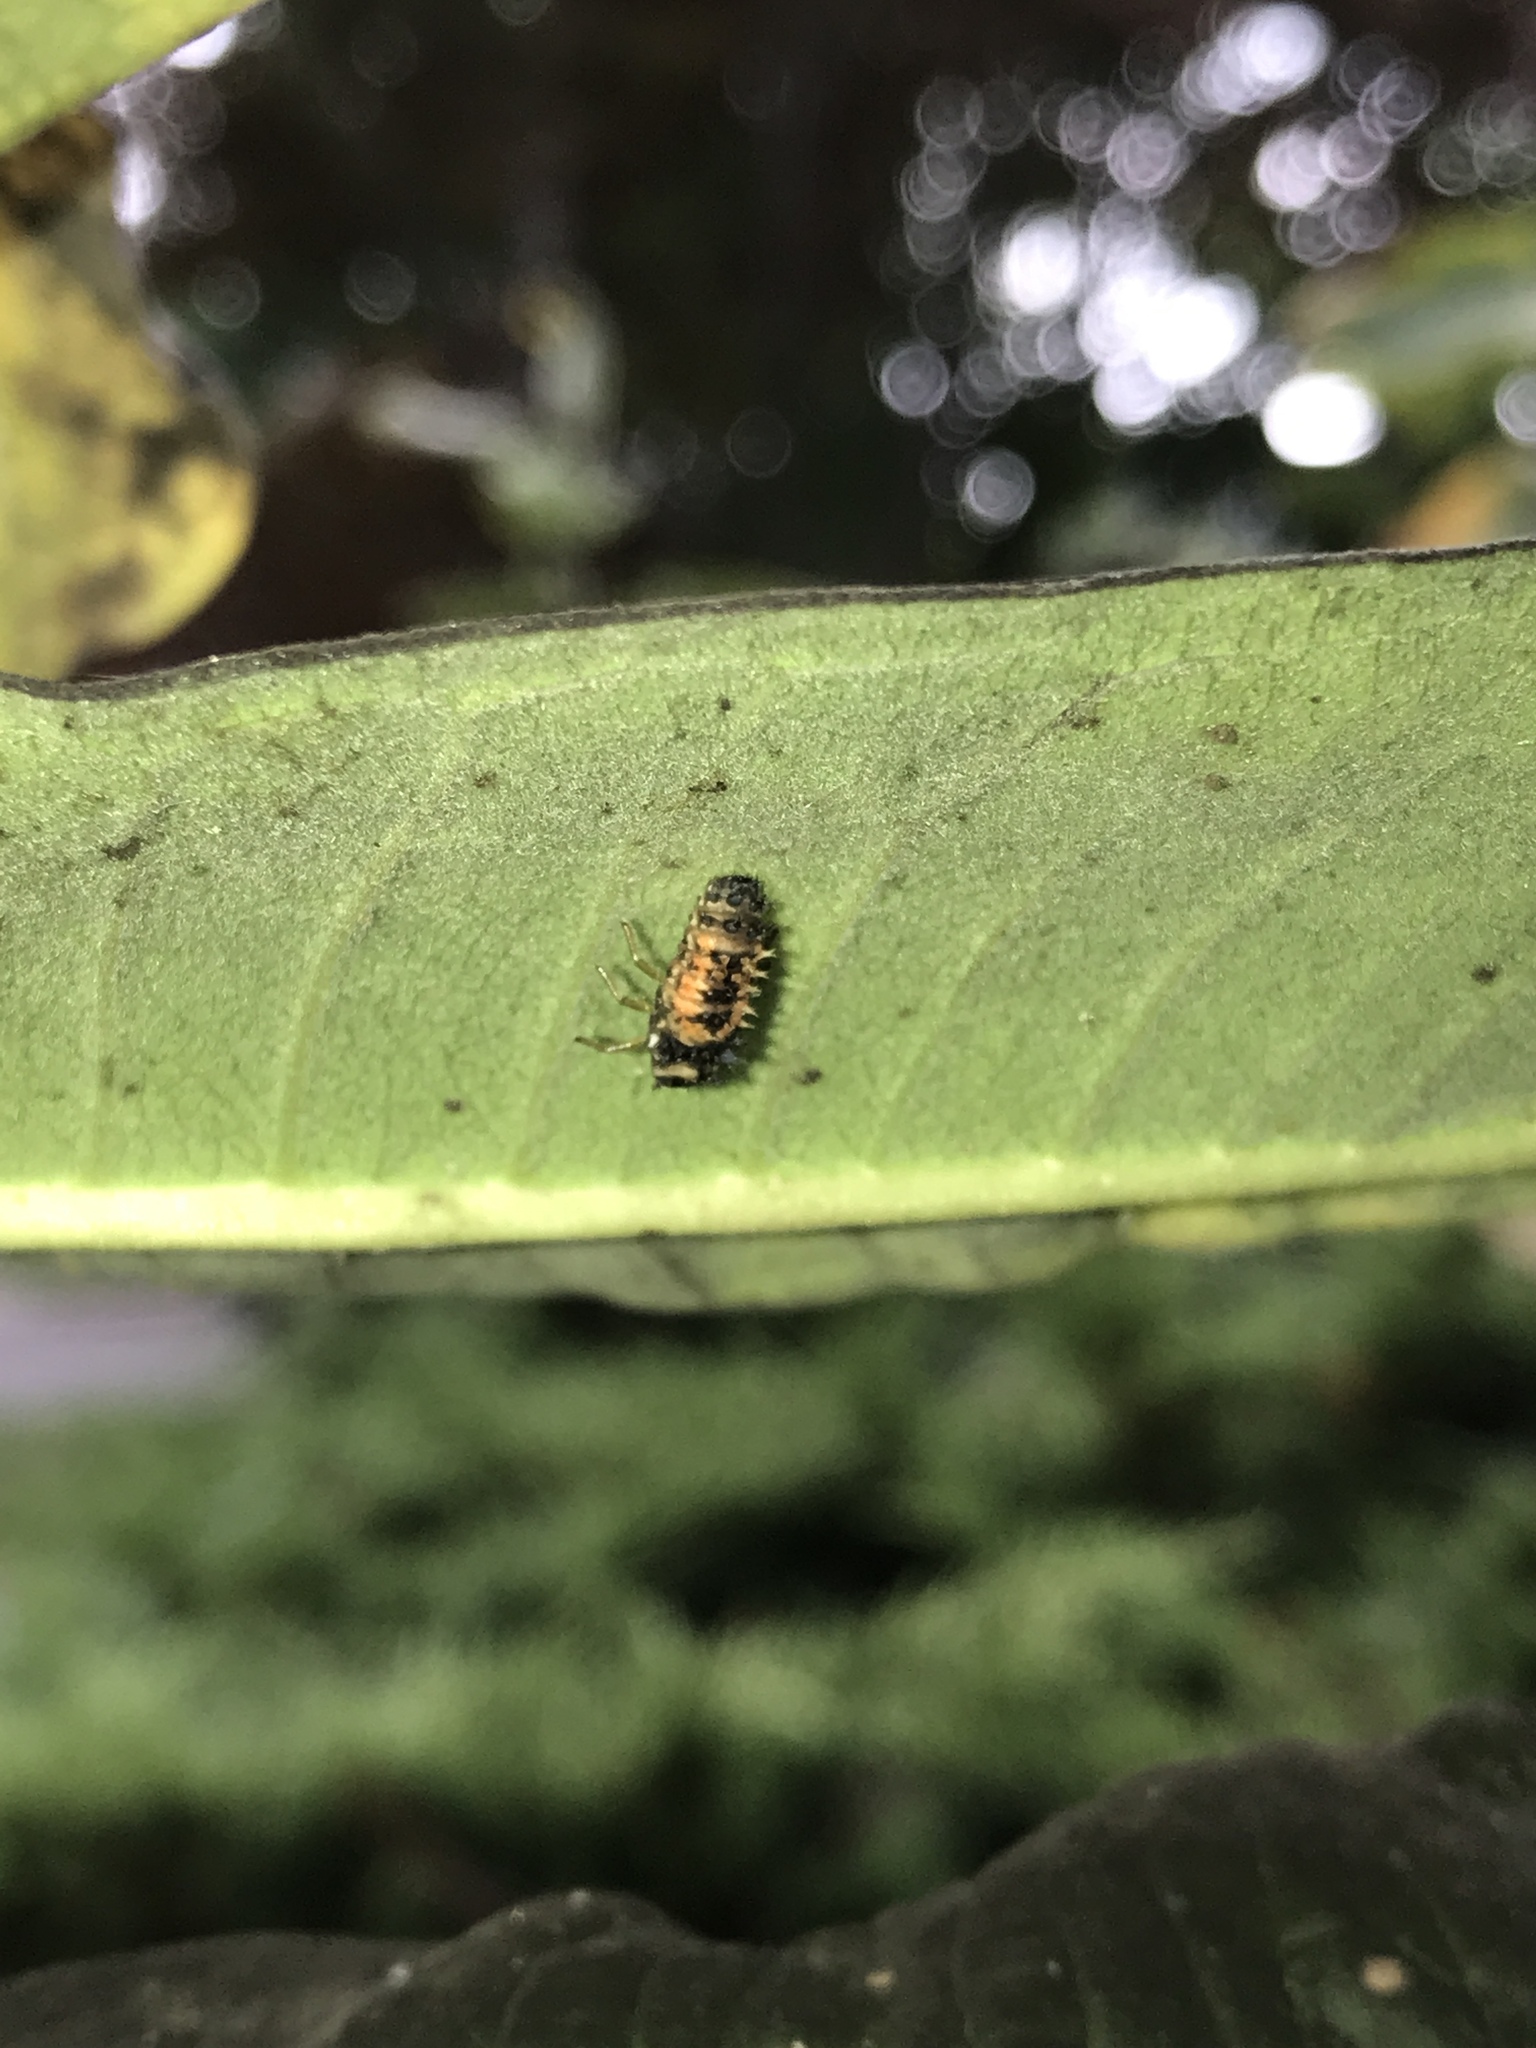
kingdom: Animalia
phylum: Arthropoda
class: Insecta
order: Coleoptera
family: Coccinellidae
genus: Harmonia
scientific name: Harmonia axyridis
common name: Harlequin ladybird
